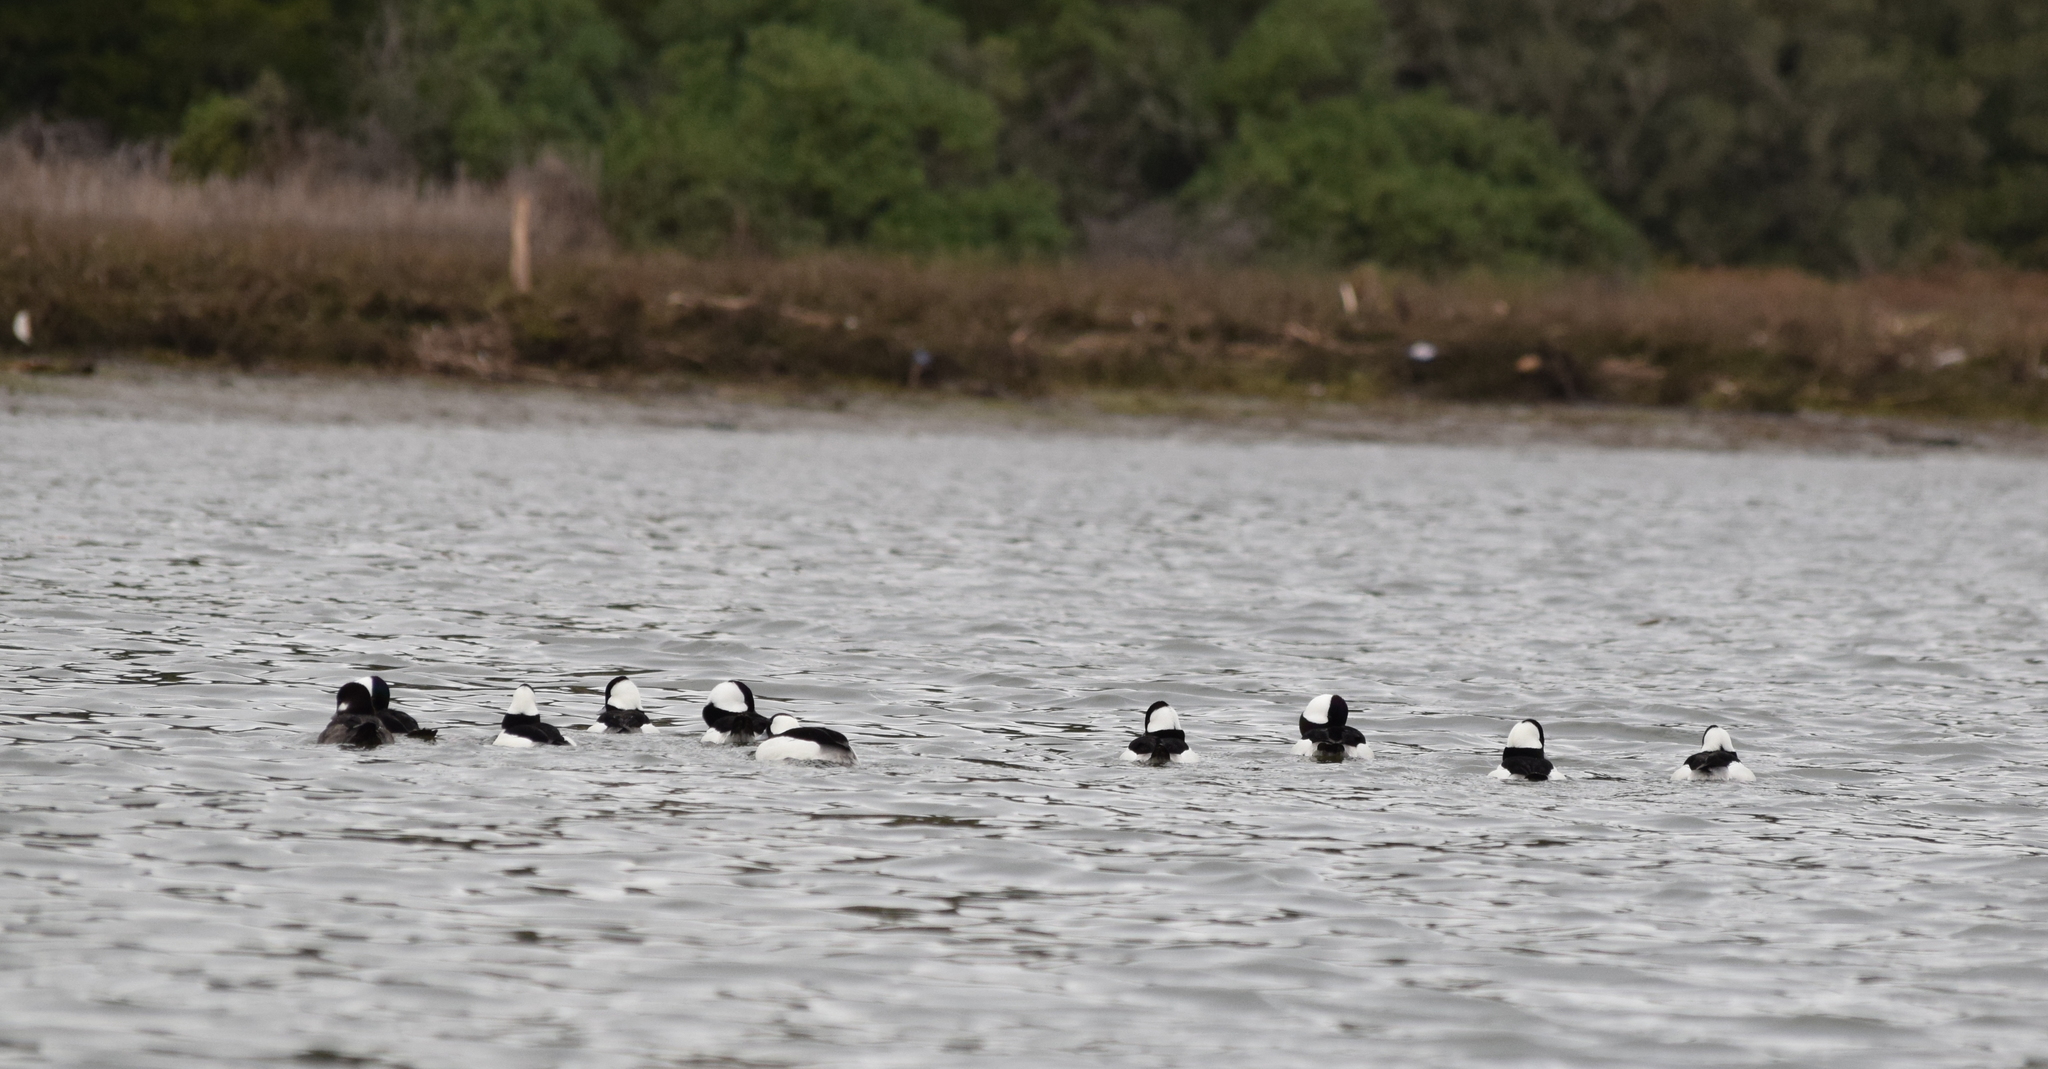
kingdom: Animalia
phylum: Chordata
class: Aves
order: Anseriformes
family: Anatidae
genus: Bucephala
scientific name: Bucephala albeola
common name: Bufflehead
